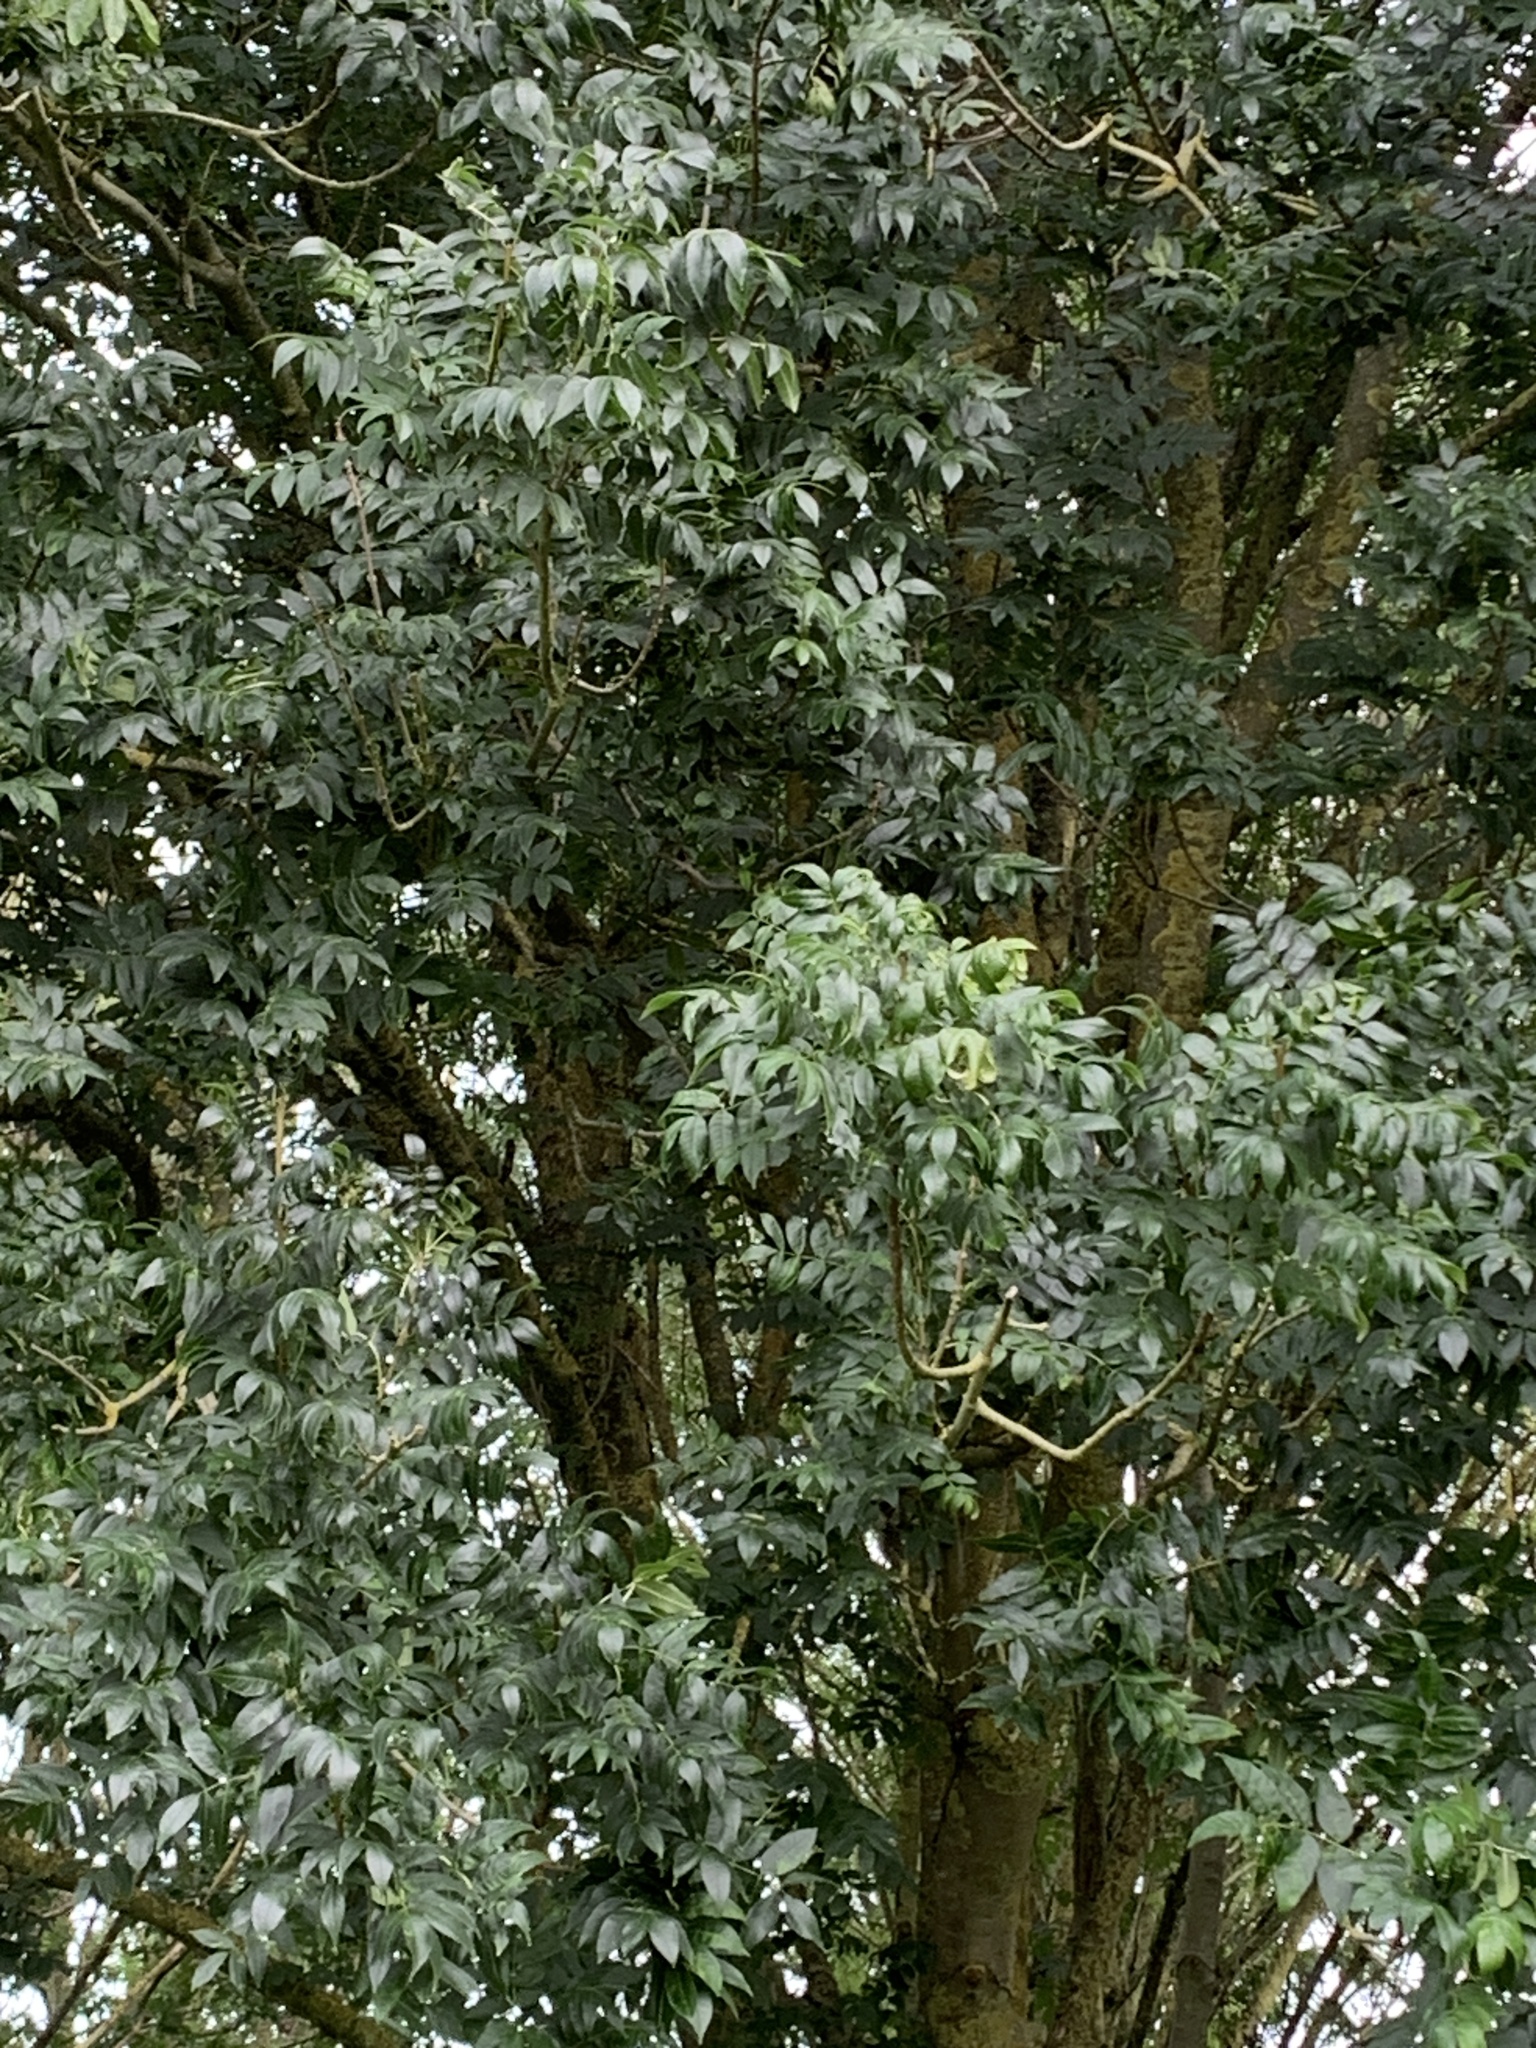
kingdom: Plantae
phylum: Tracheophyta
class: Magnoliopsida
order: Lamiales
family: Oleaceae
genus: Fraxinus
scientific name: Fraxinus excelsior
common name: European ash
